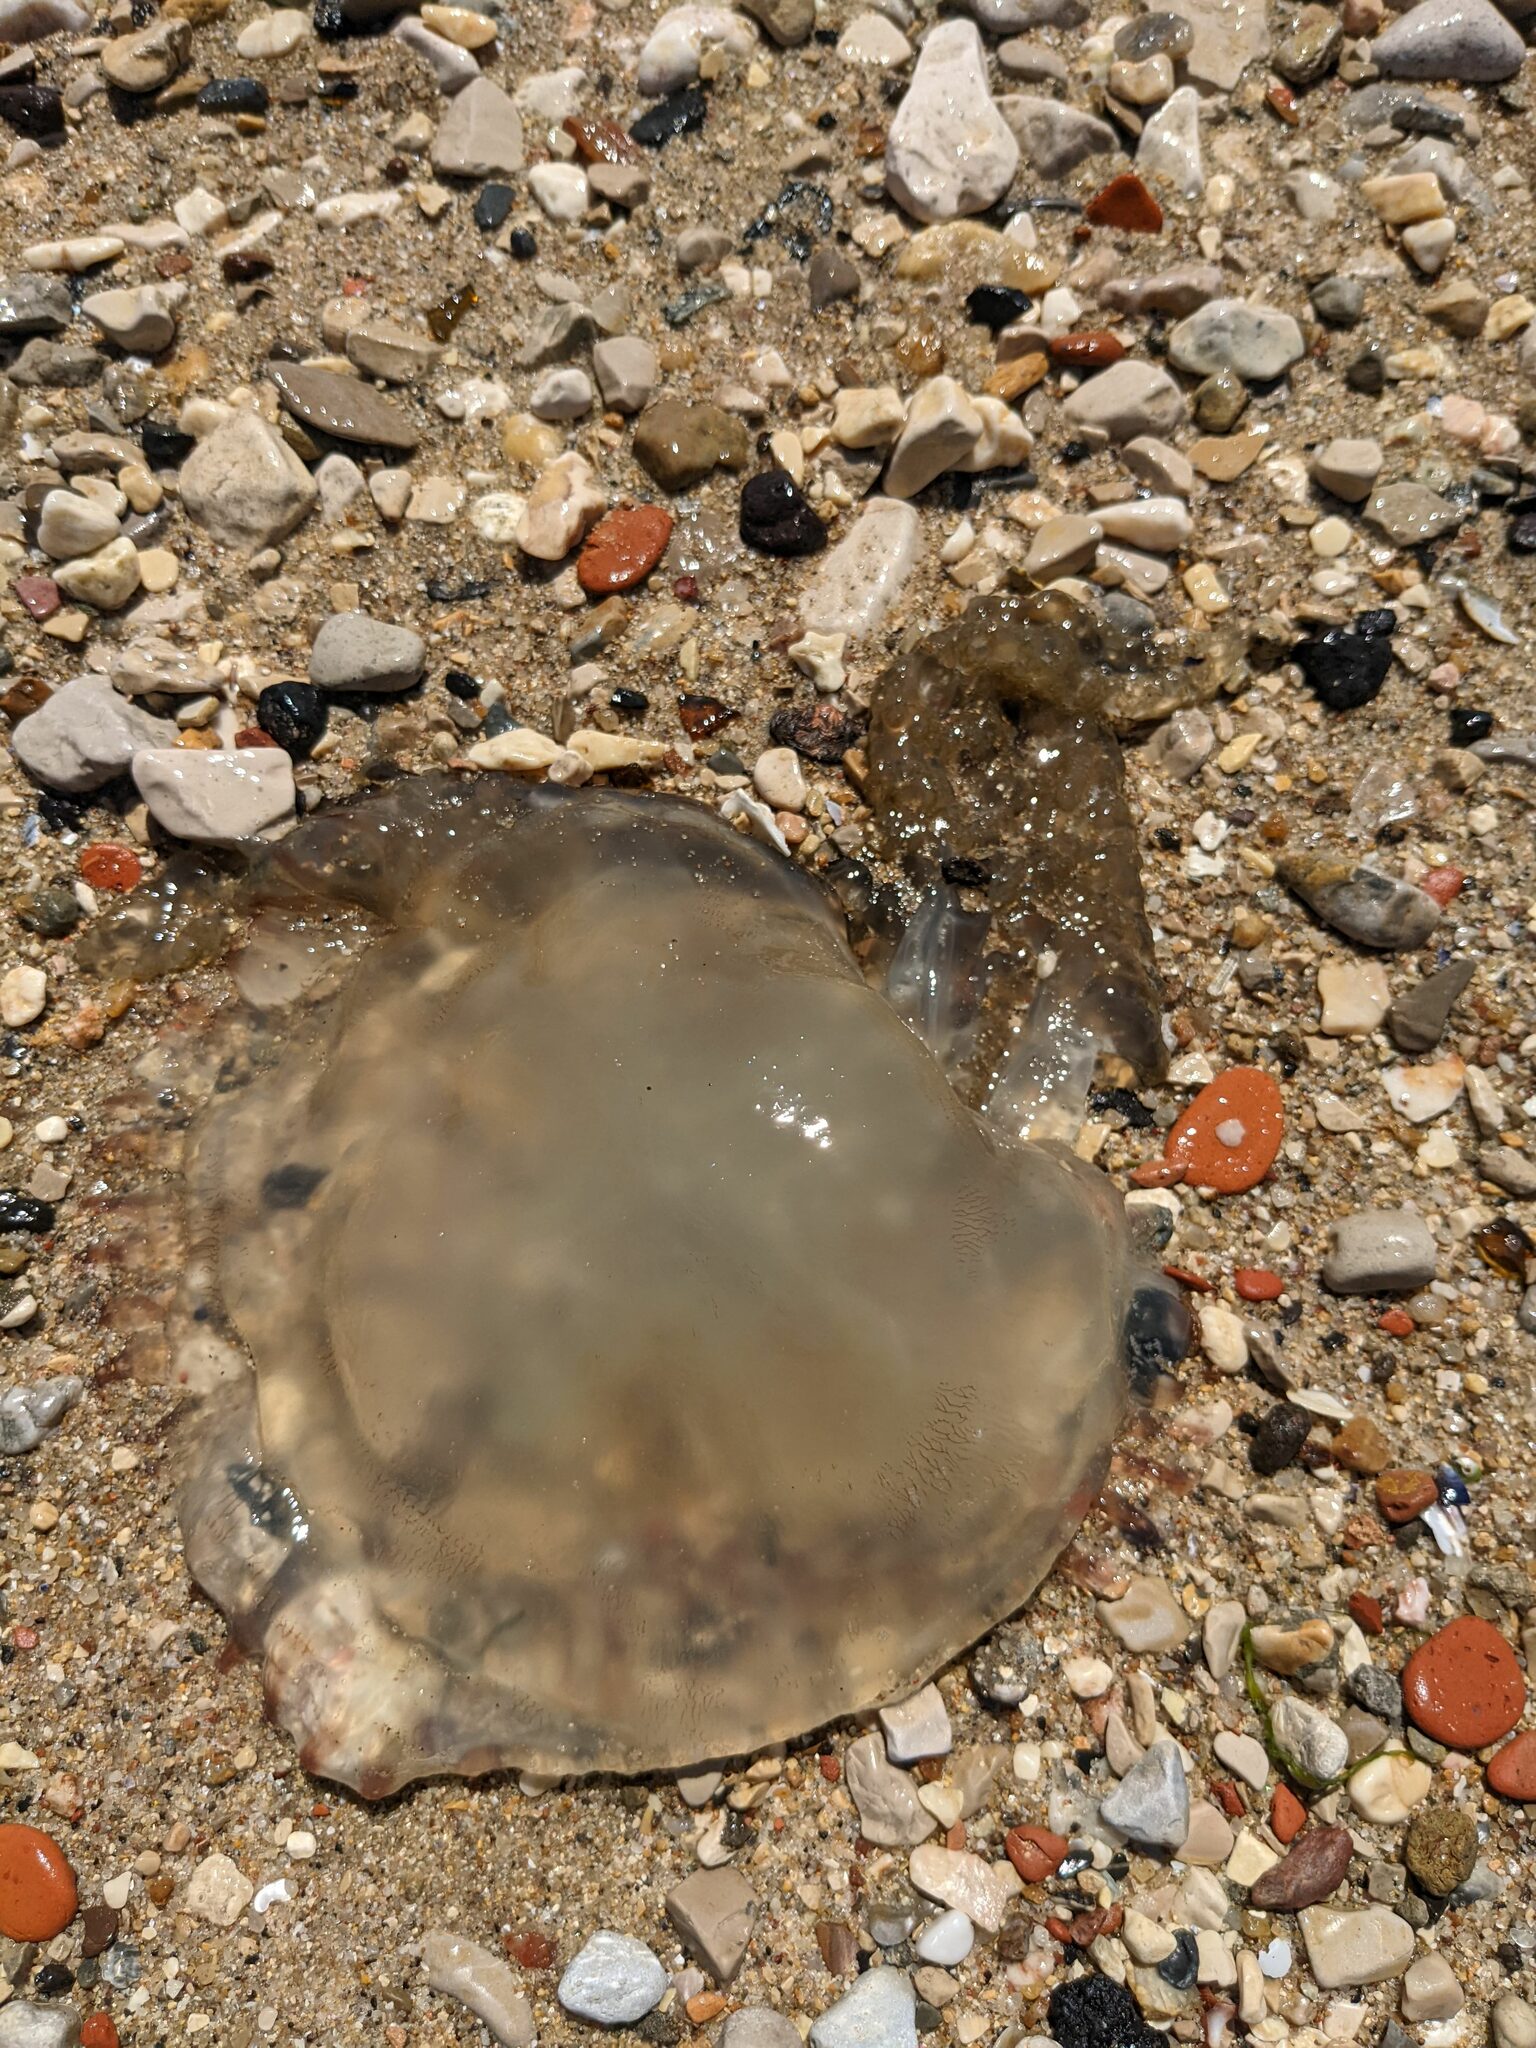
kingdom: Animalia
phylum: Cnidaria
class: Scyphozoa
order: Rhizostomeae
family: Catostylidae
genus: Catostylus
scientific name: Catostylus tagi
